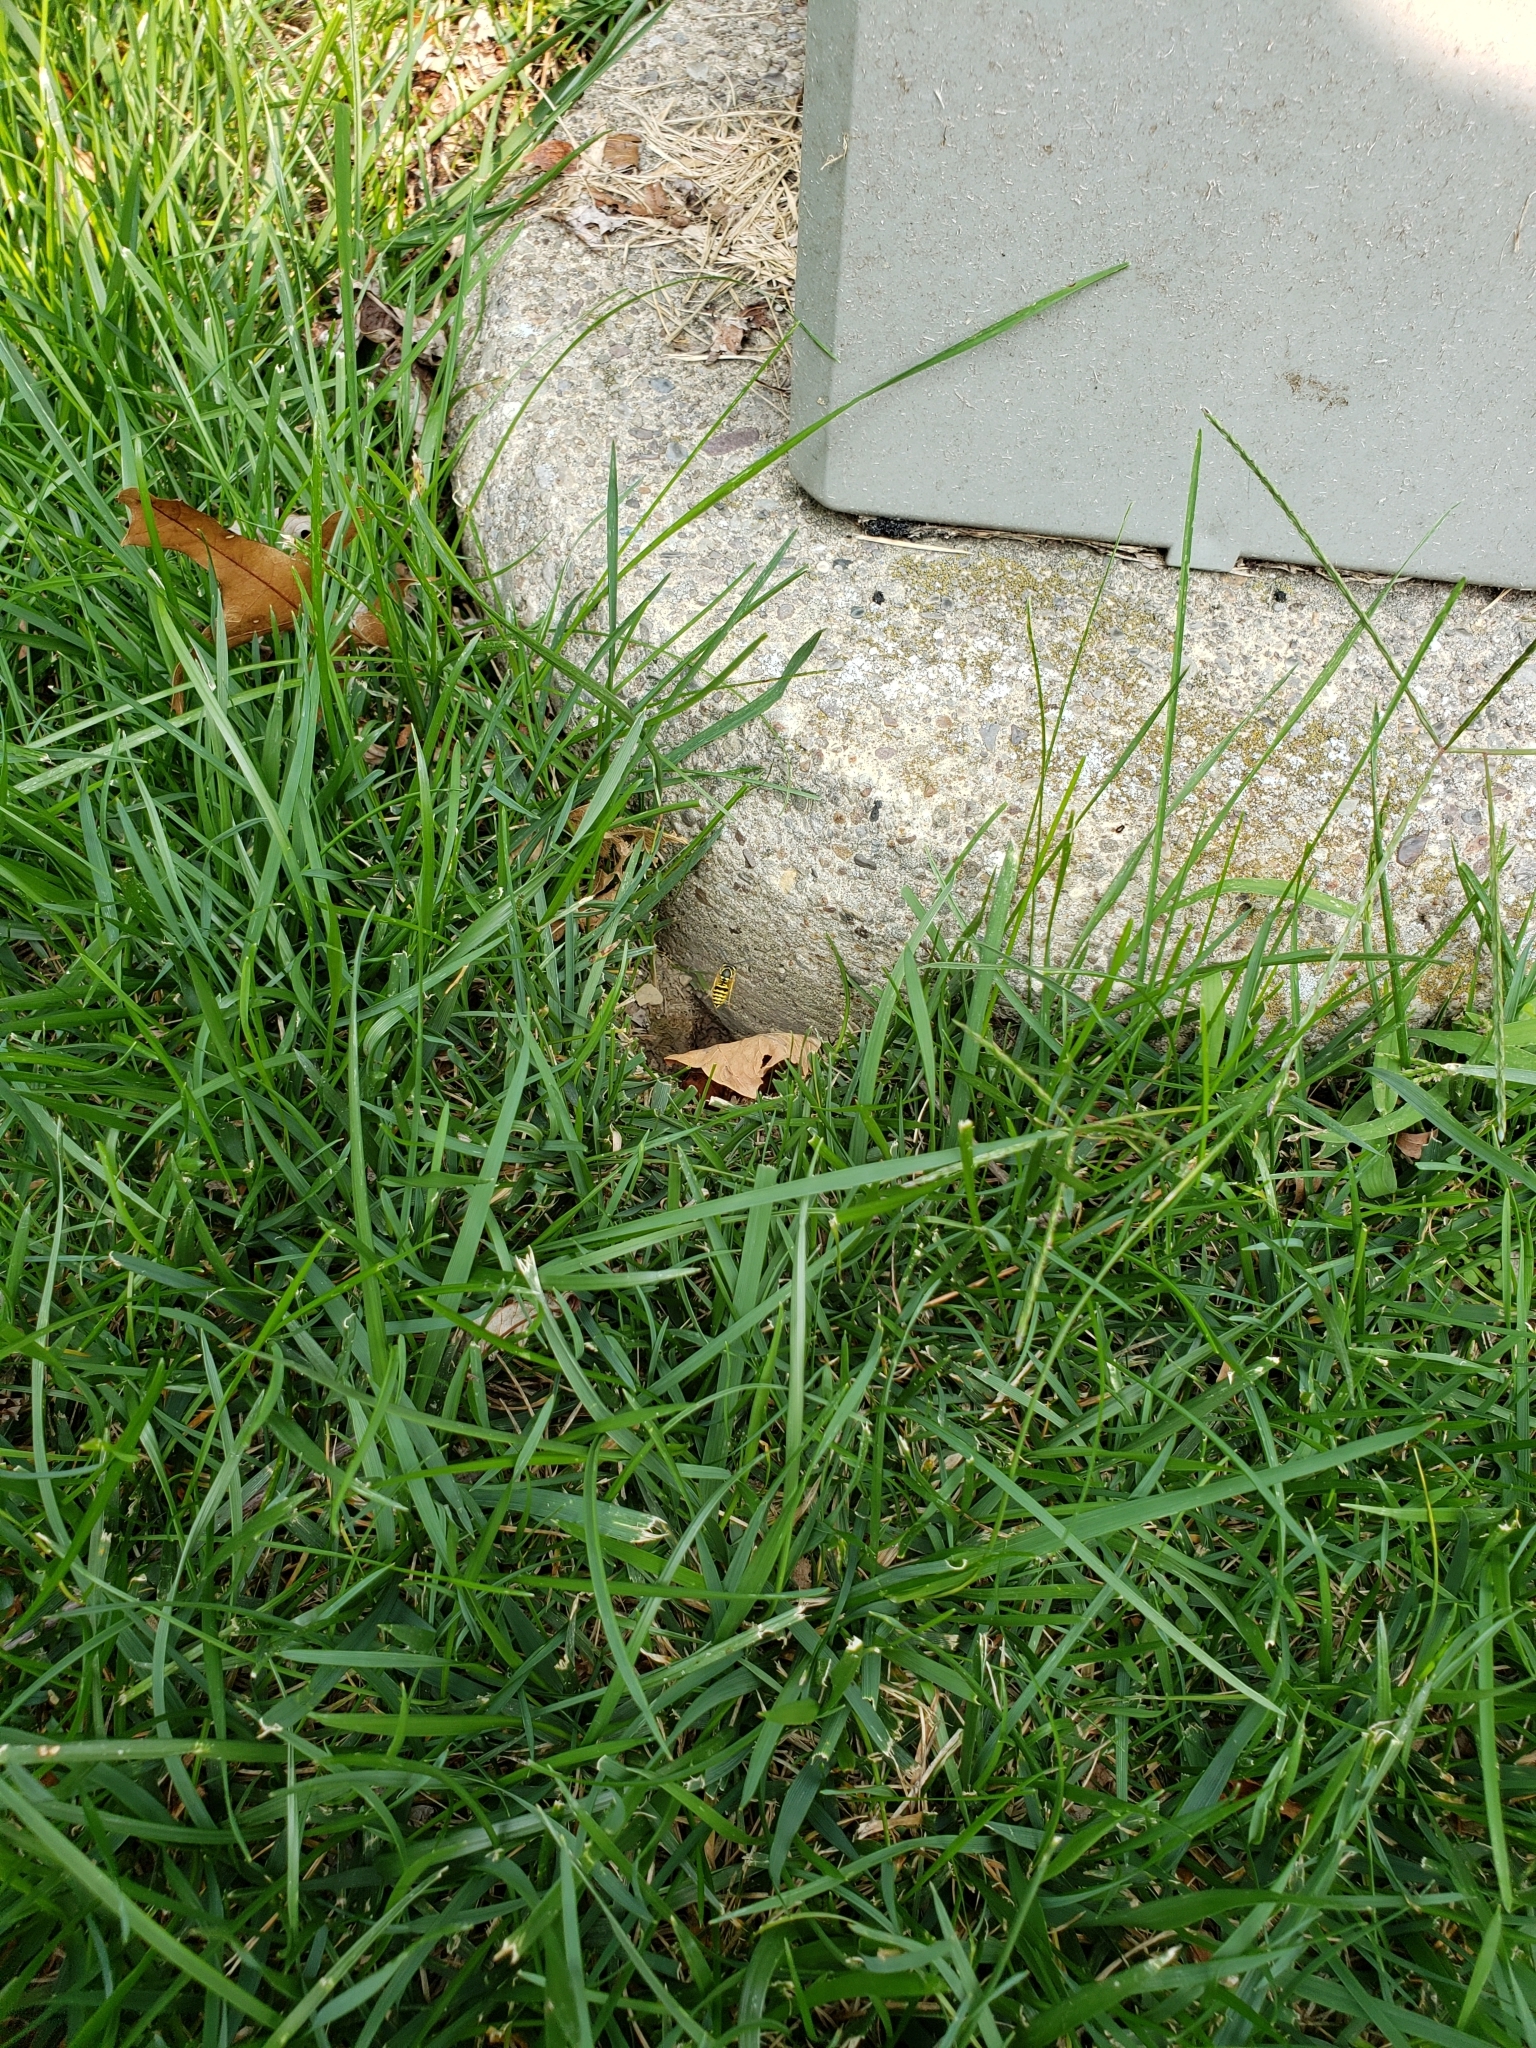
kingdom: Animalia
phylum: Arthropoda
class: Insecta
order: Hymenoptera
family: Vespidae
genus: Vespula
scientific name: Vespula maculifrons
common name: Eastern yellowjacket
